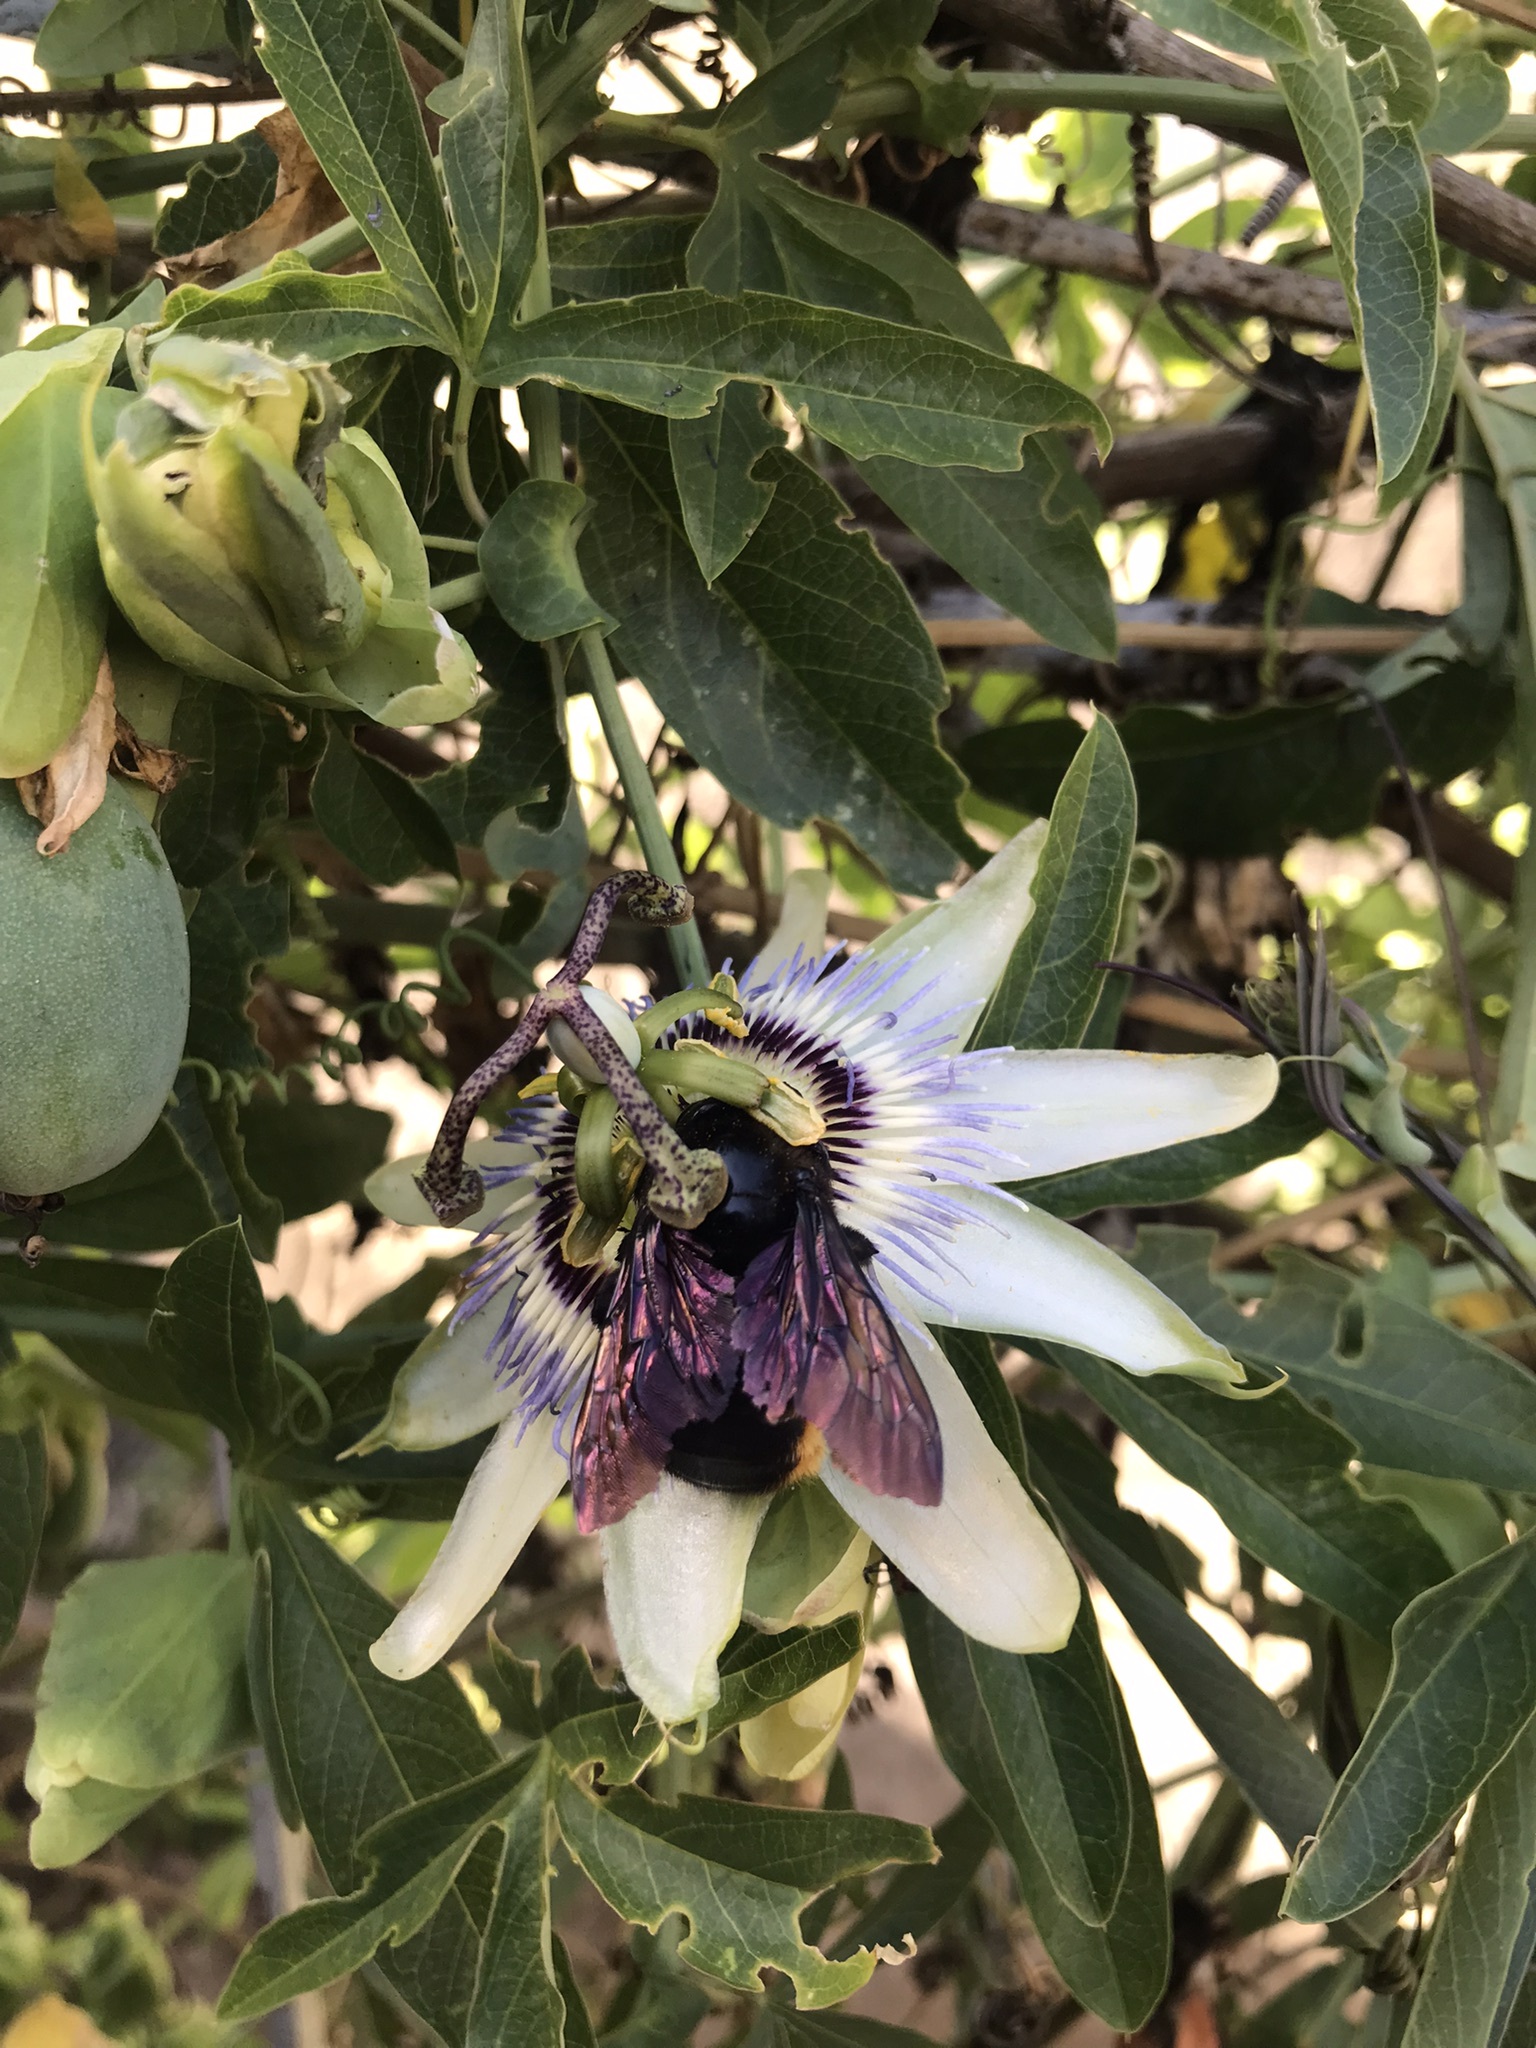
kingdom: Animalia
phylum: Arthropoda
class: Insecta
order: Hymenoptera
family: Apidae
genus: Xylocopa
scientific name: Xylocopa augusti
